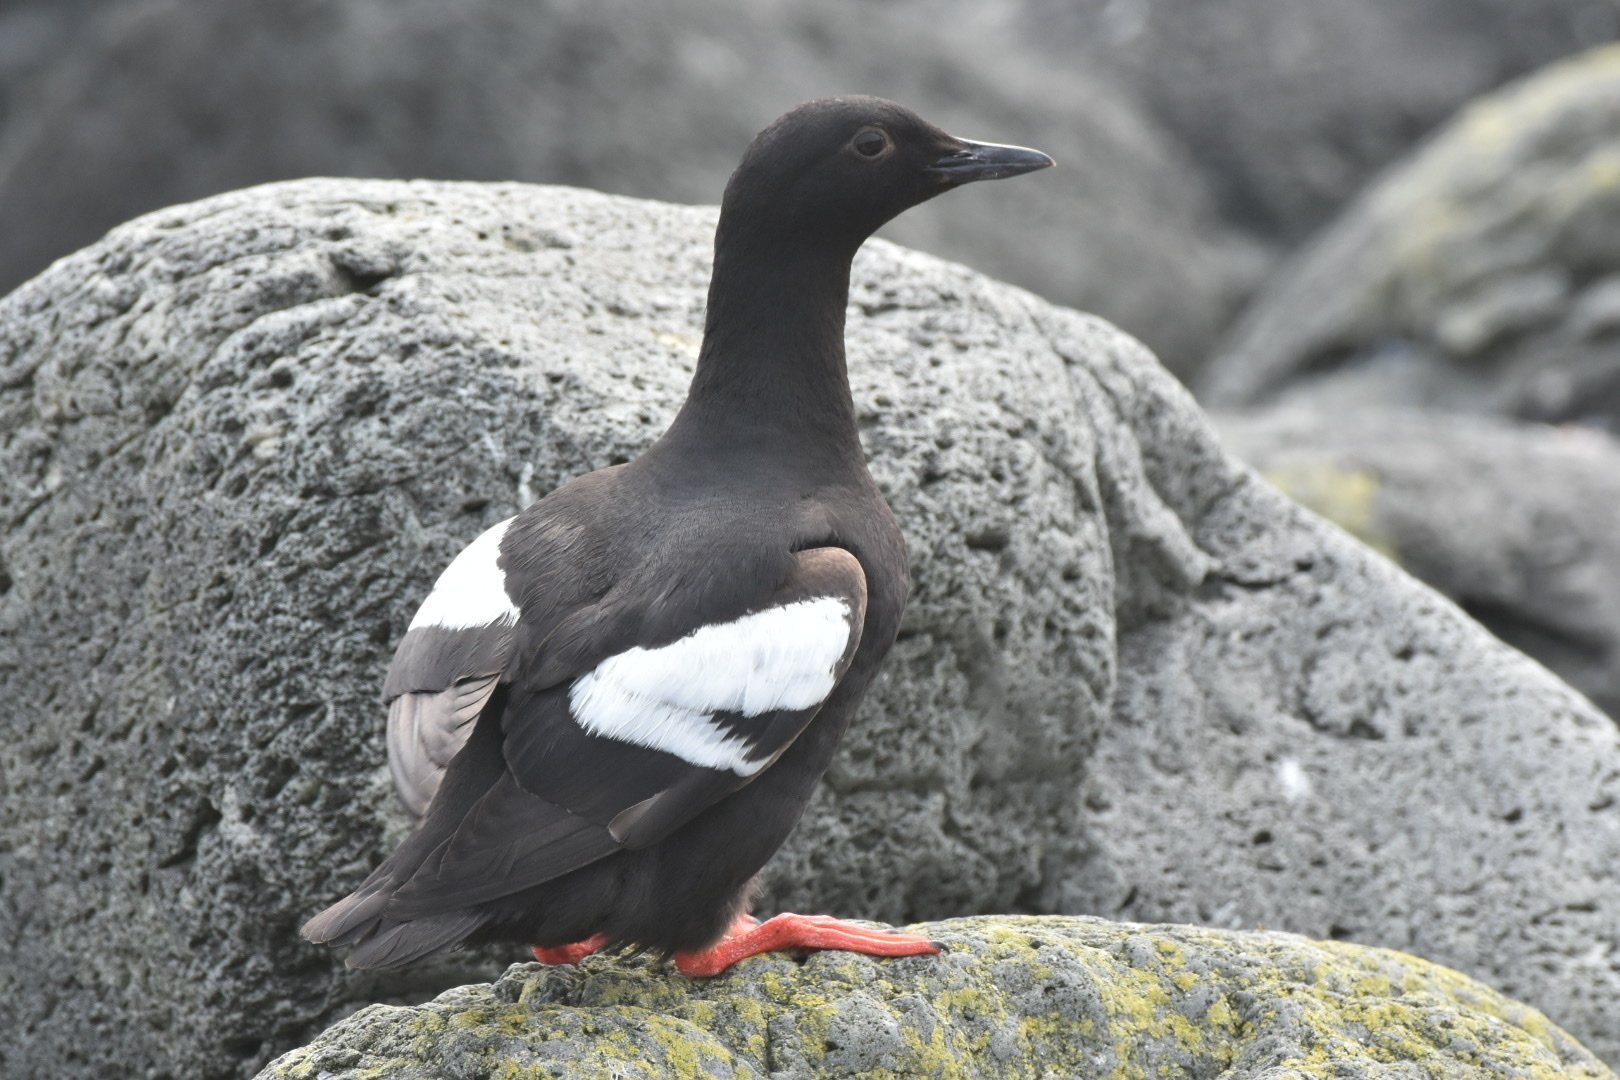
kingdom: Animalia
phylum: Chordata
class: Aves
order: Charadriiformes
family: Alcidae
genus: Cepphus
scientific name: Cepphus columba
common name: Pigeon guillemot
